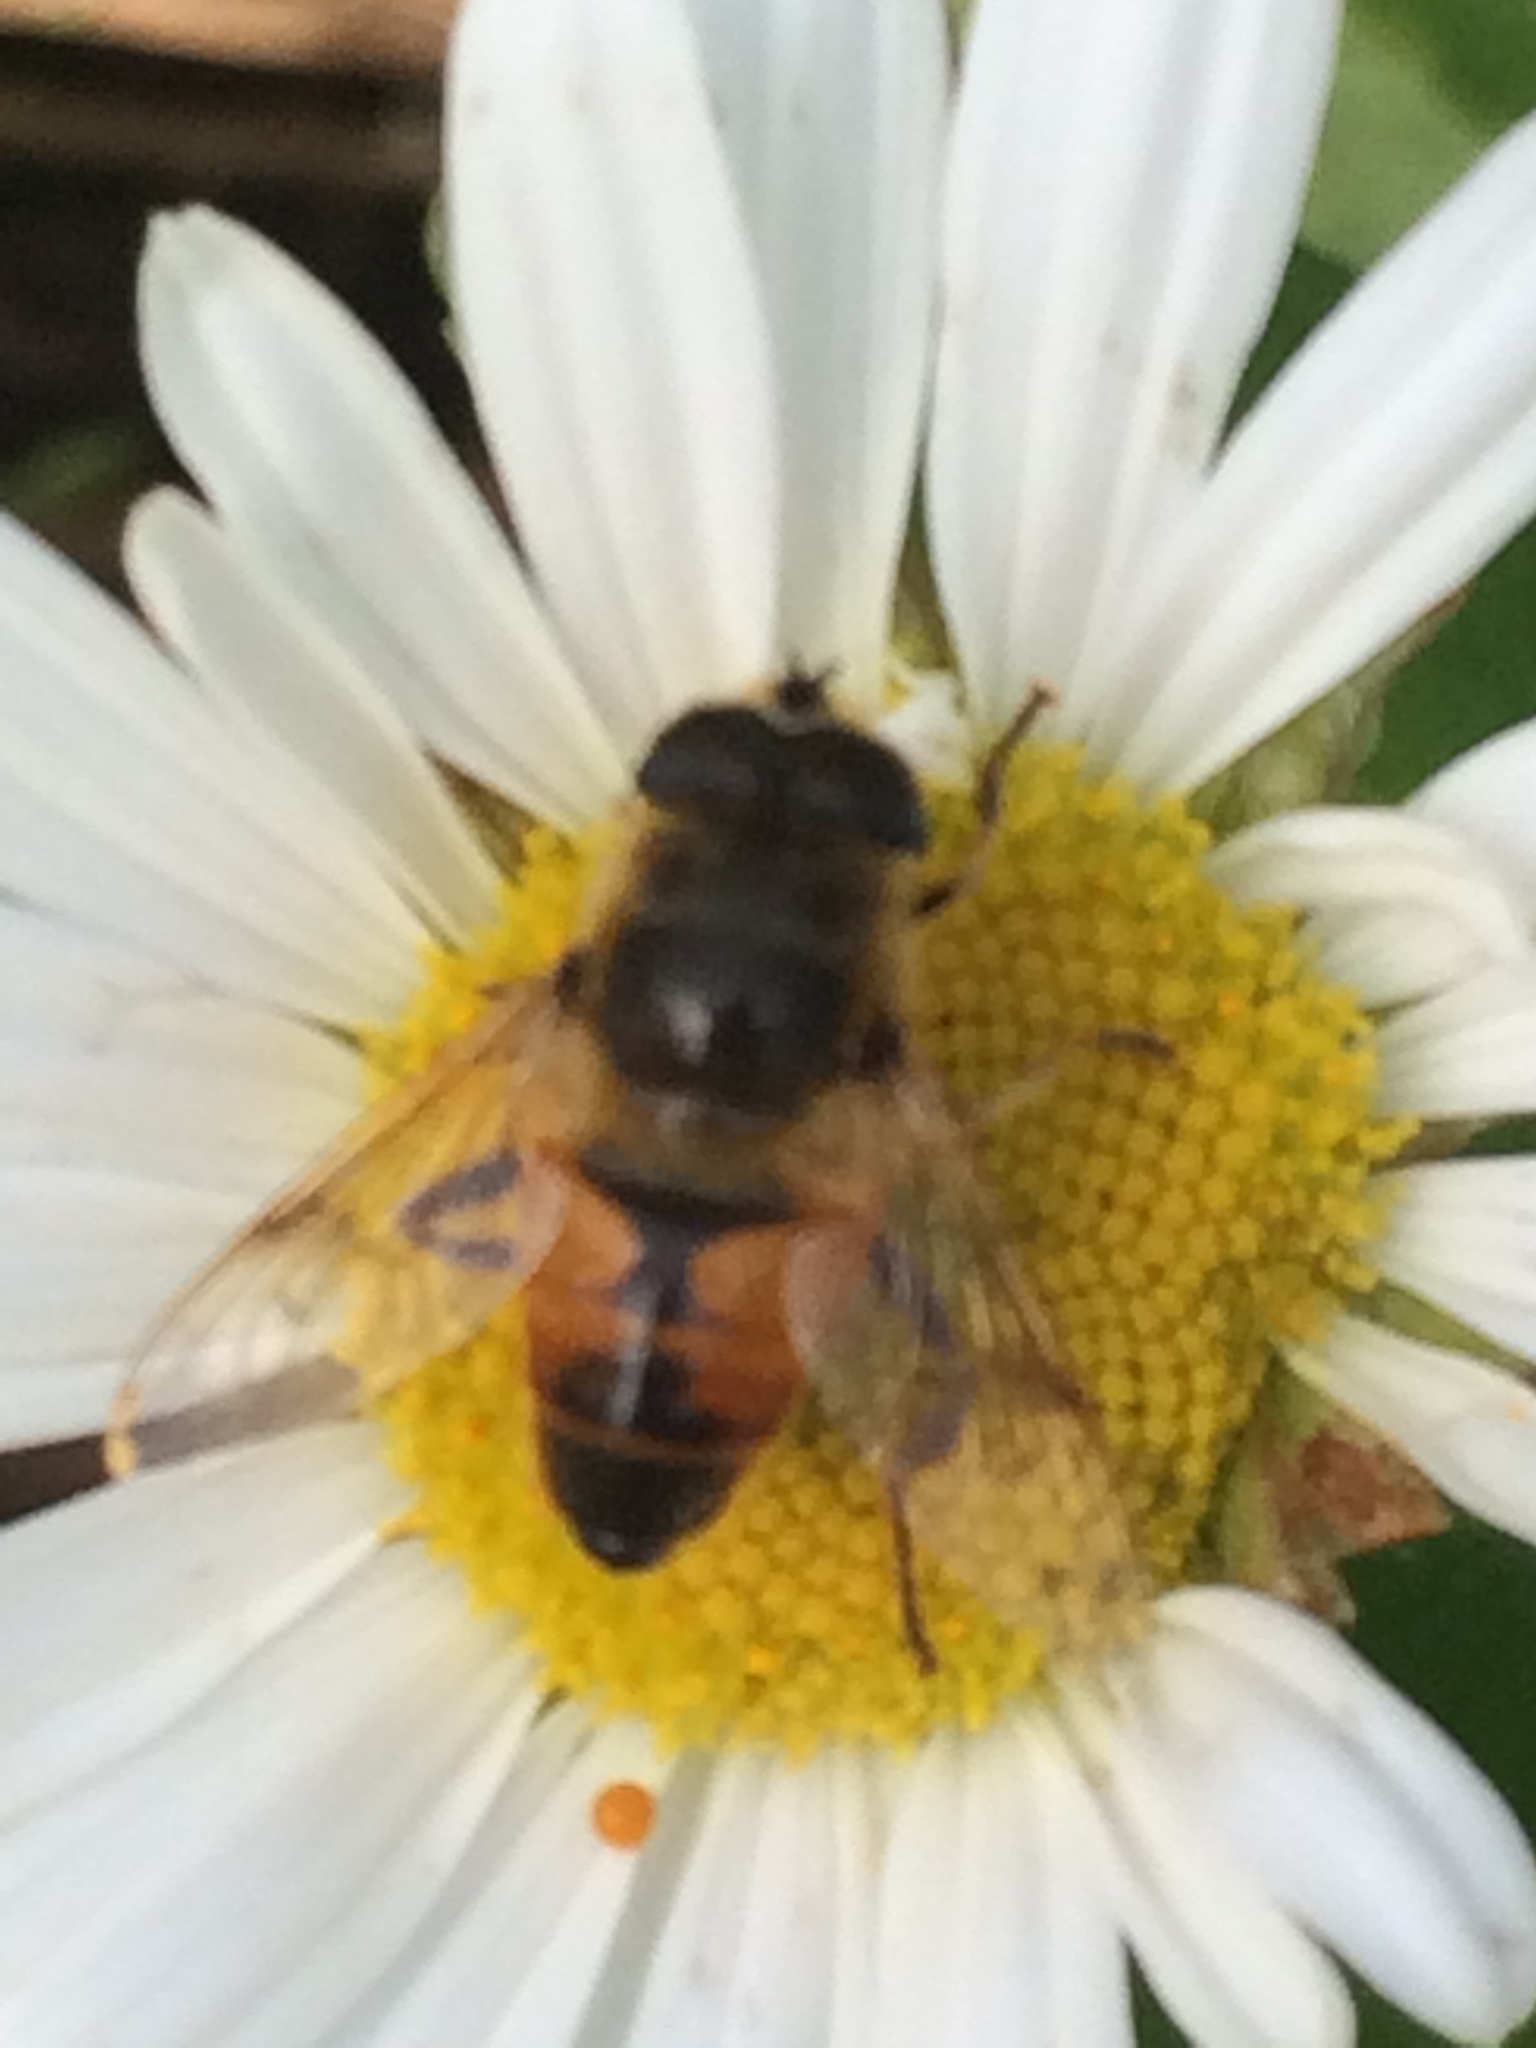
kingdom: Animalia
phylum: Arthropoda
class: Insecta
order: Diptera
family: Syrphidae
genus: Eristalis
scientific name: Eristalis tenax
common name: Drone fly
